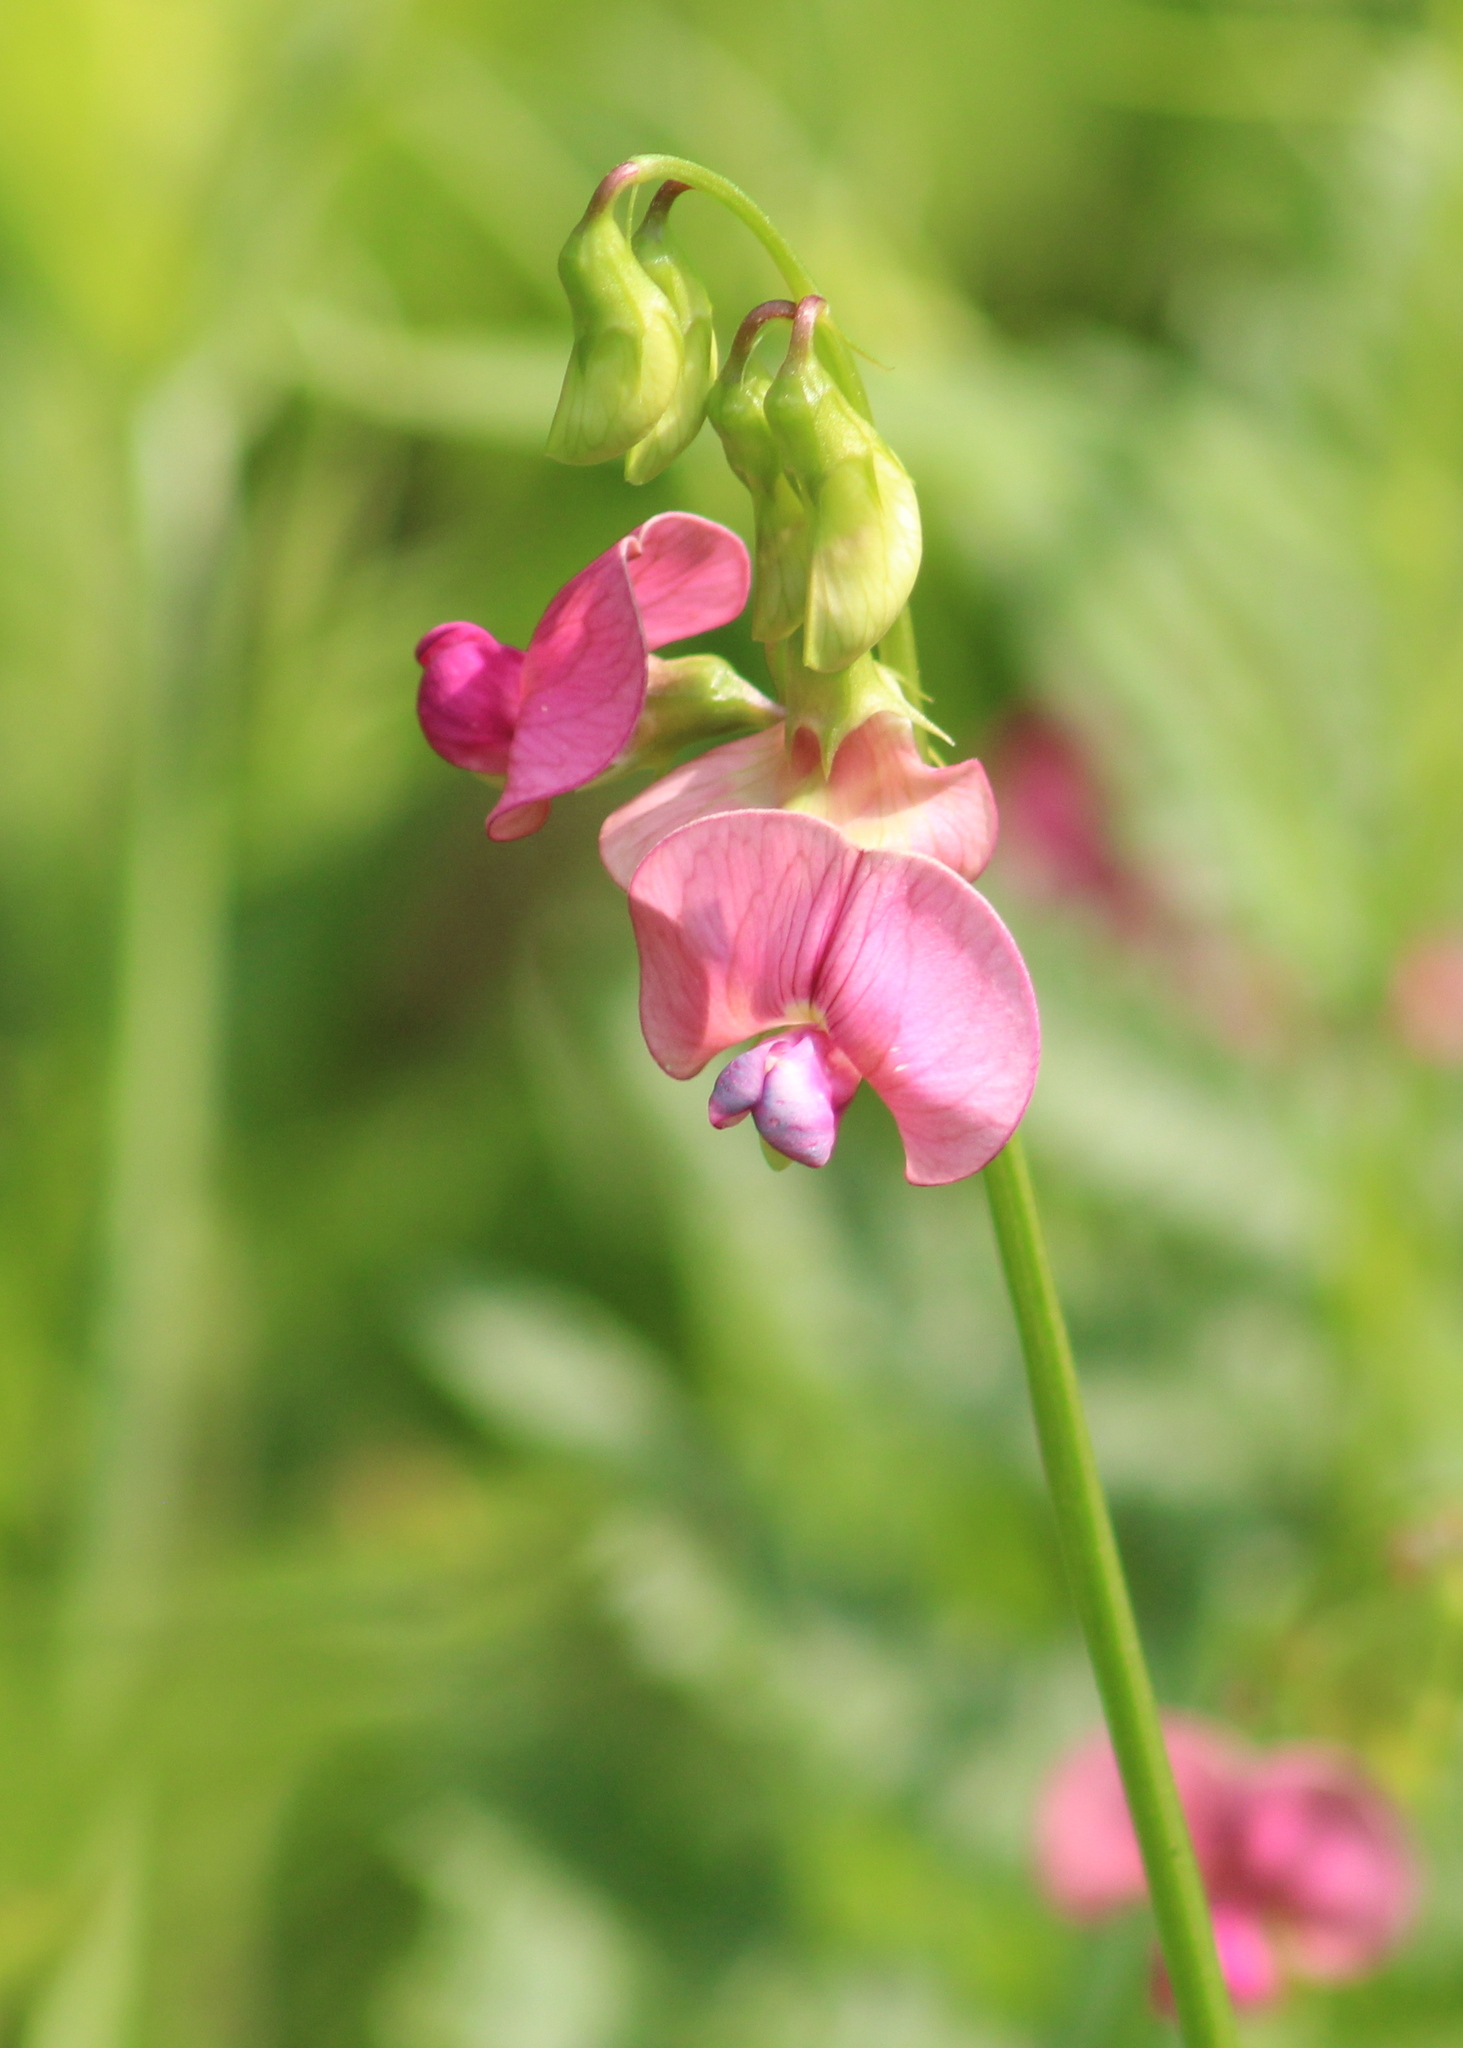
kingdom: Plantae
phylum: Tracheophyta
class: Magnoliopsida
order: Fabales
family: Fabaceae
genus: Lathyrus
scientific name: Lathyrus sylvestris
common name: Flat pea
